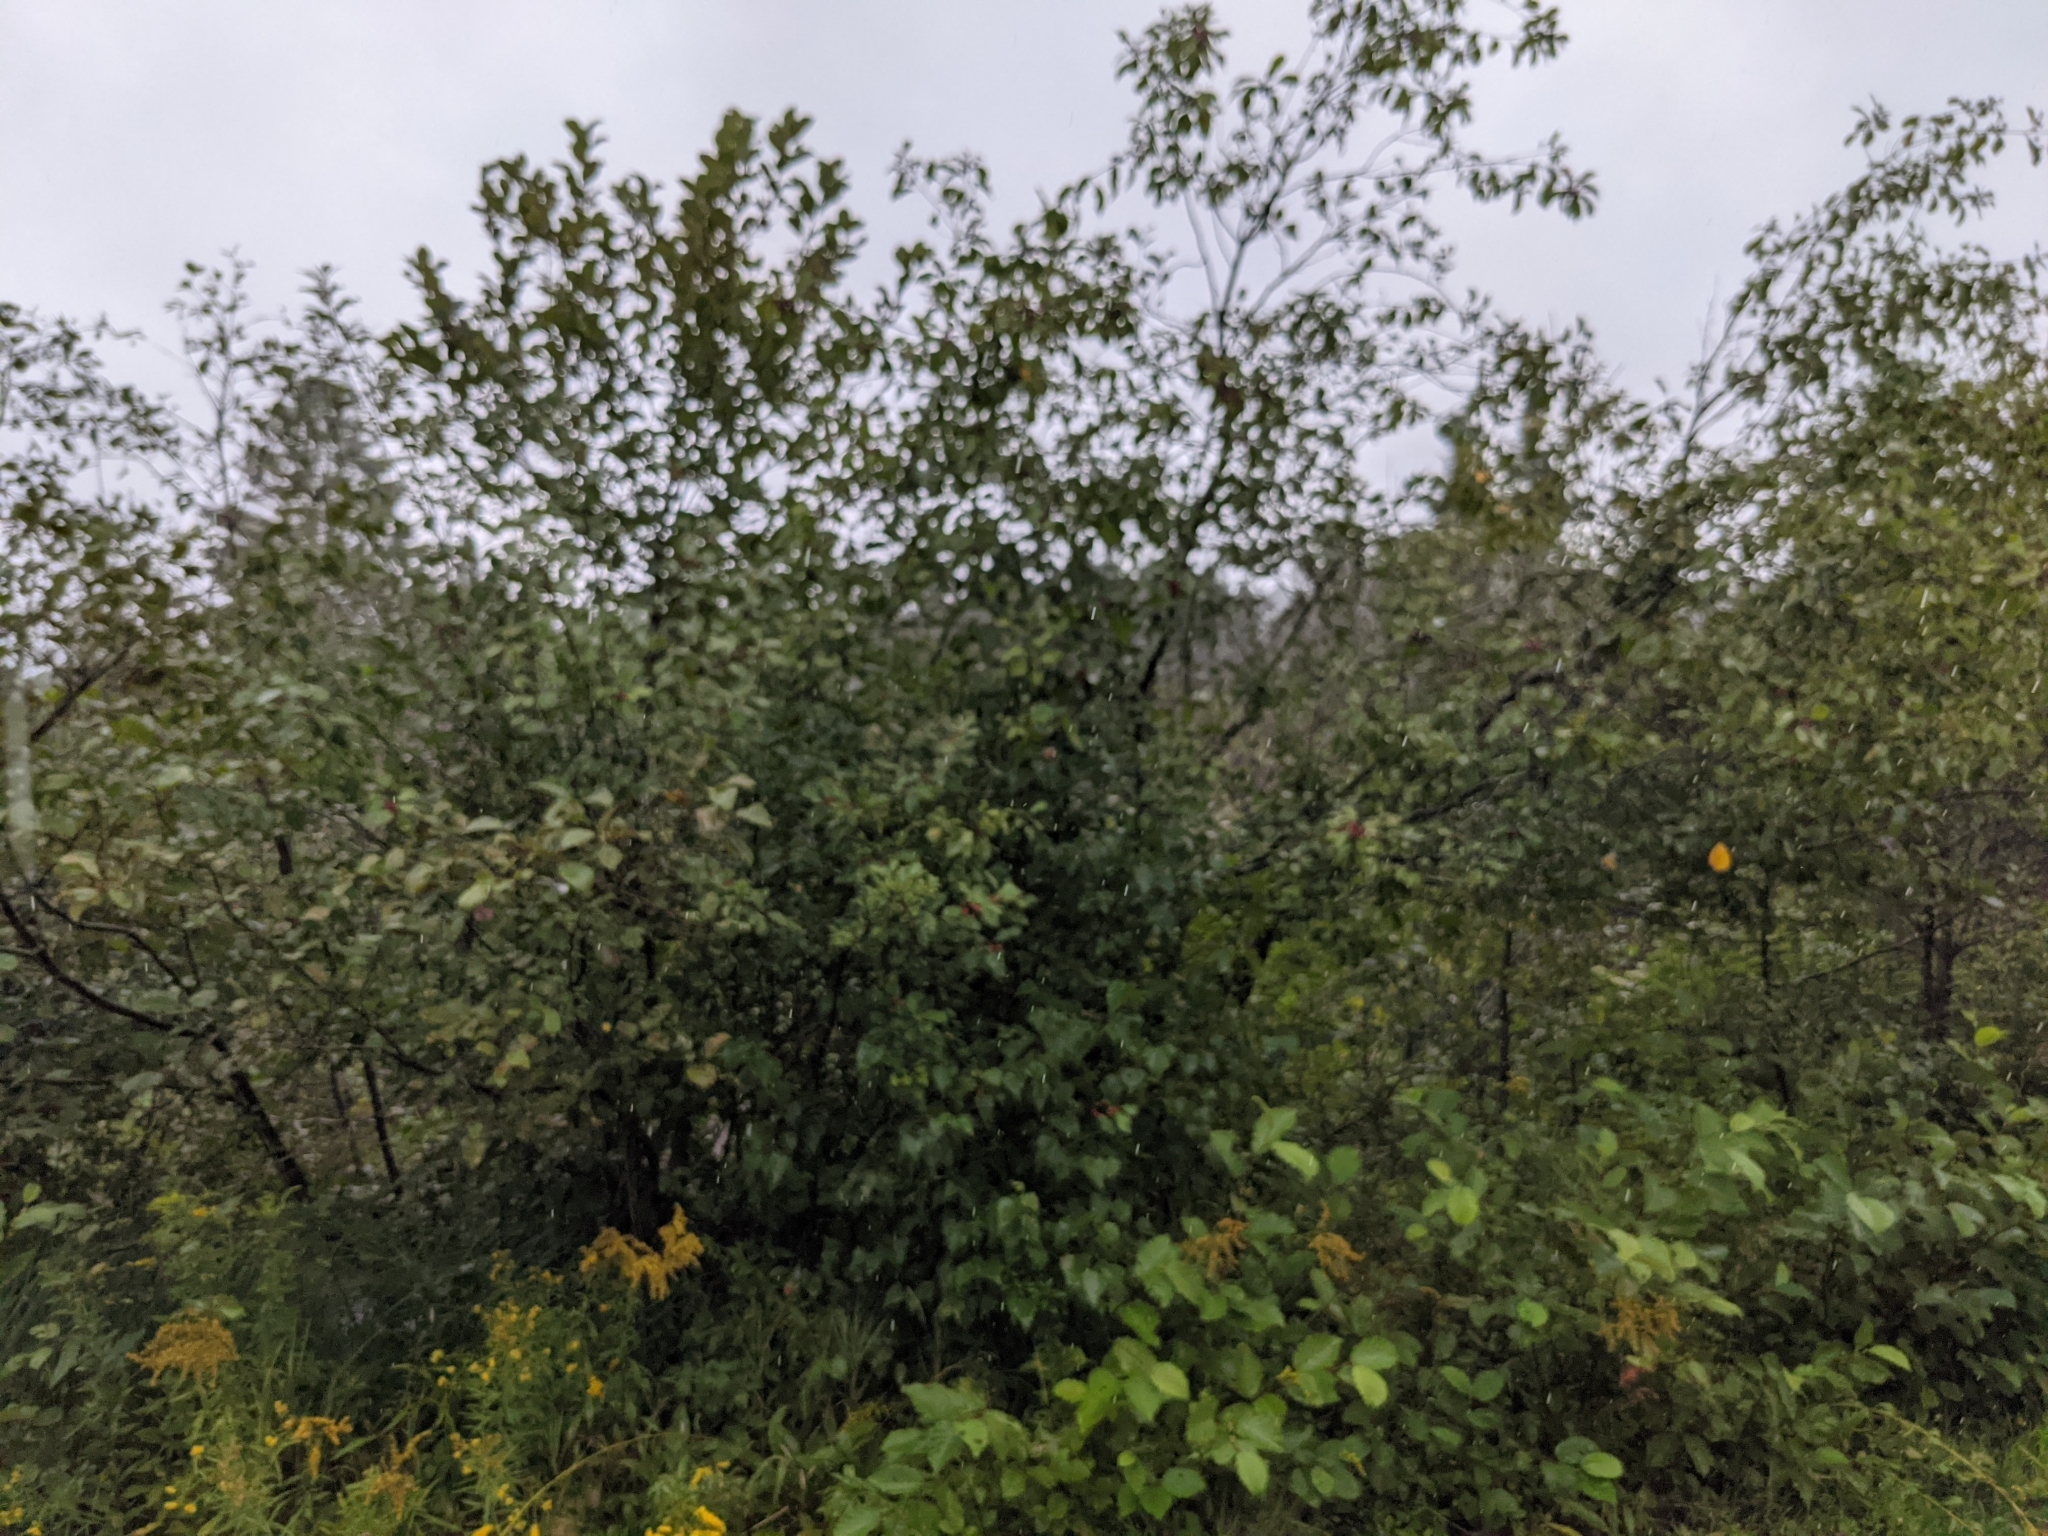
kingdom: Plantae
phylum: Tracheophyta
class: Magnoliopsida
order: Rosales
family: Rhamnaceae
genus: Frangula
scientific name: Frangula alnus
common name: Alder buckthorn
